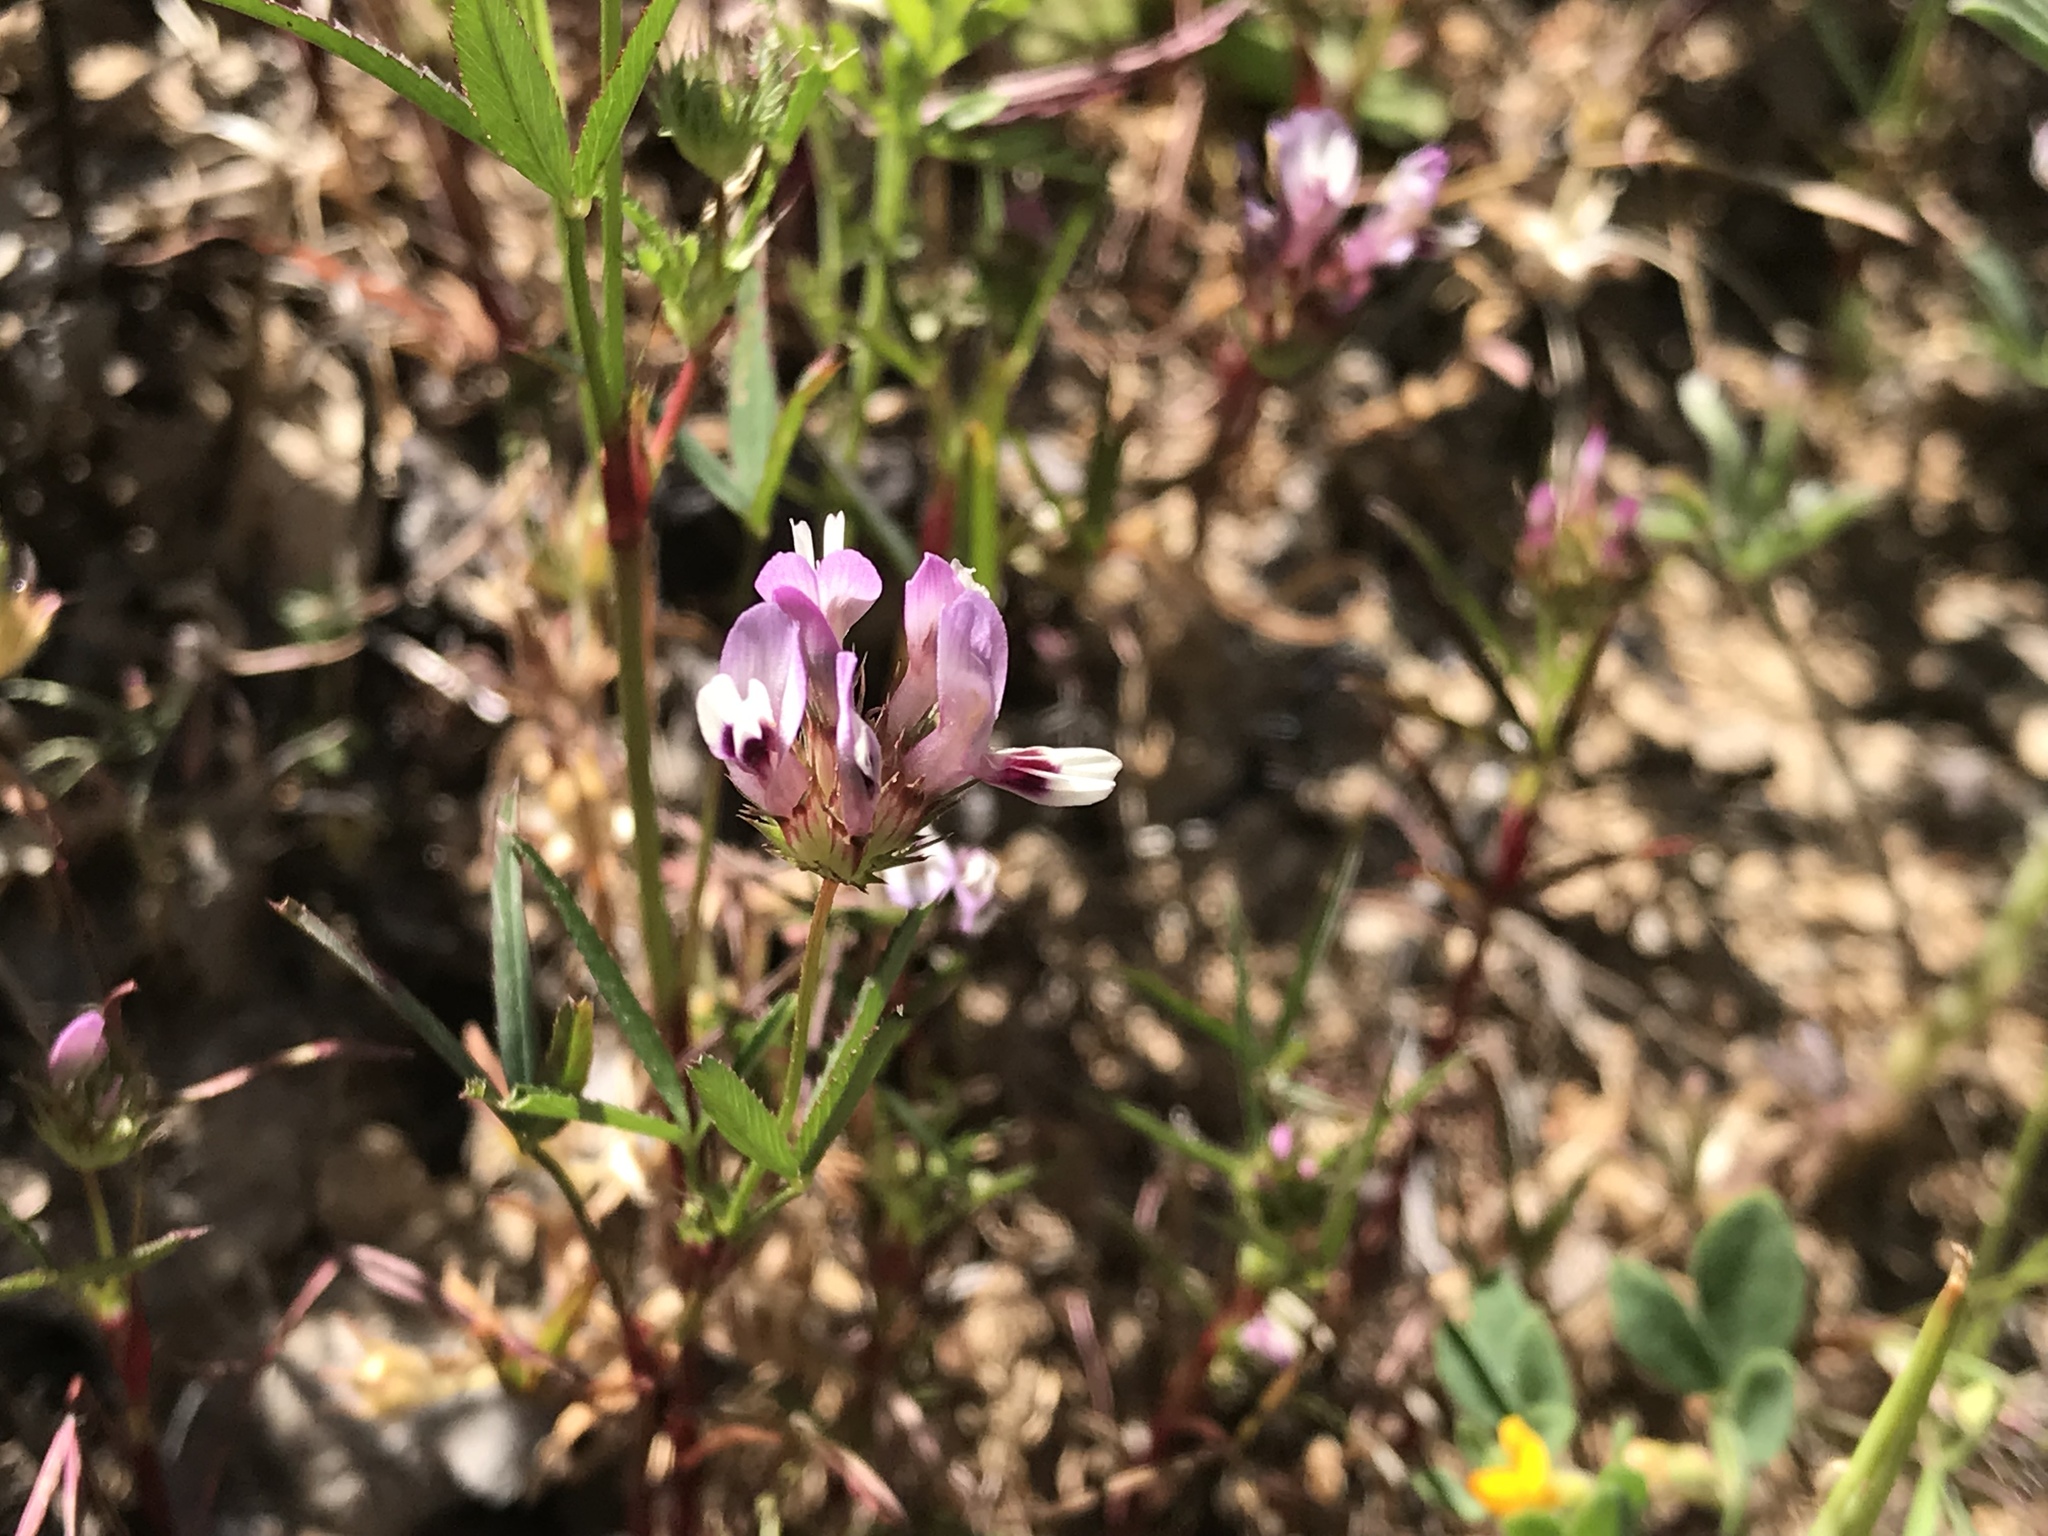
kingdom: Plantae
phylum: Tracheophyta
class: Magnoliopsida
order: Fabales
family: Fabaceae
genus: Trifolium
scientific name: Trifolium willdenovii
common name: Tomcat clover
